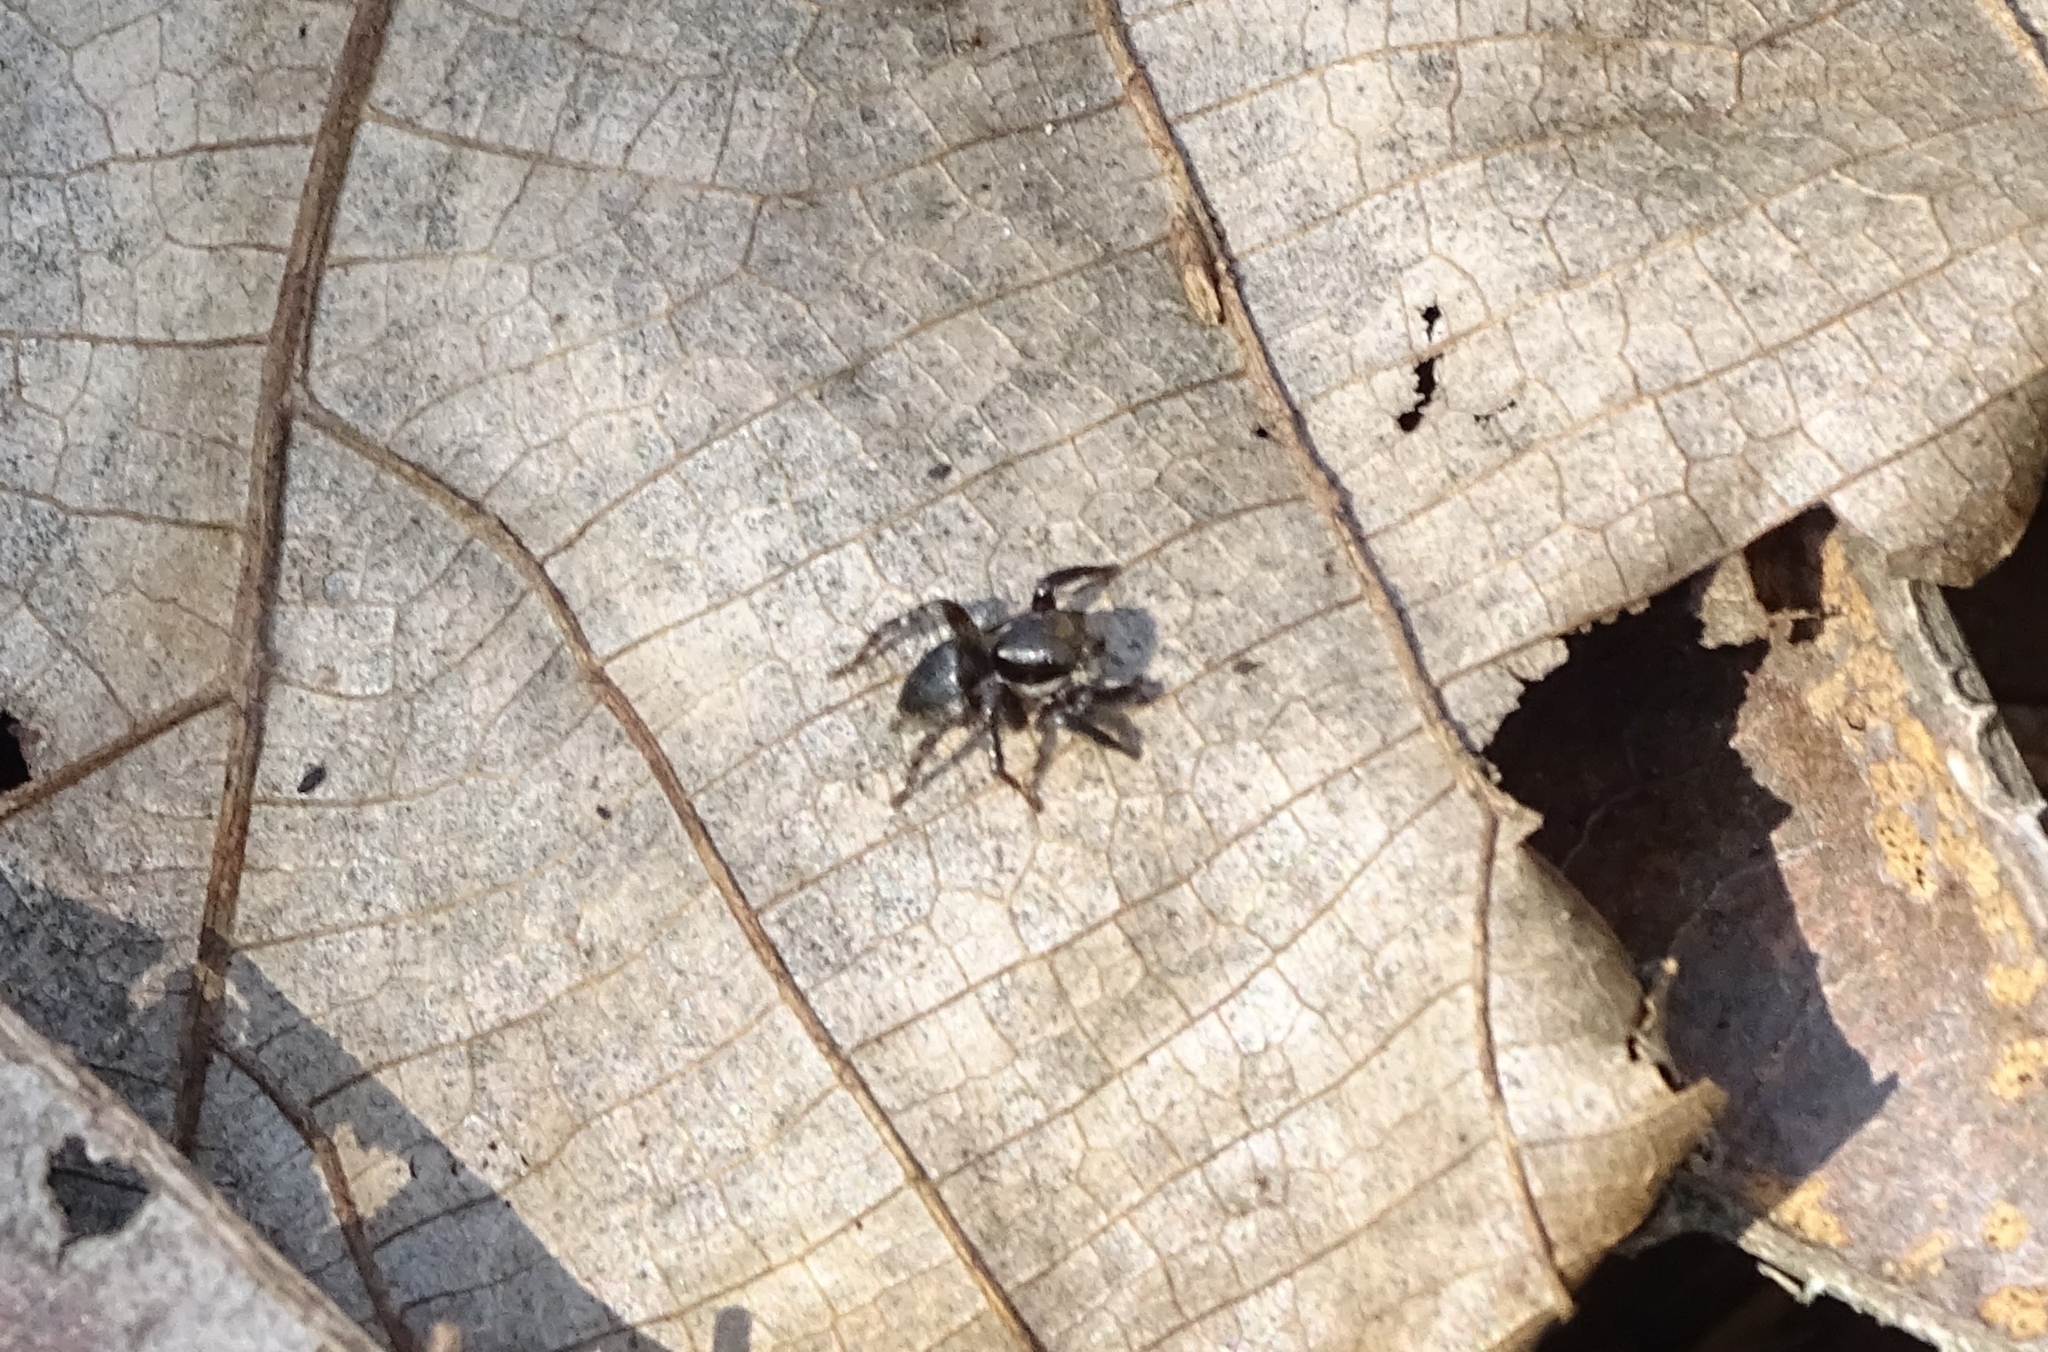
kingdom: Animalia
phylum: Arthropoda
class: Arachnida
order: Araneae
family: Salticidae
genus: Stenaelurillus
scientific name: Stenaelurillus albus
